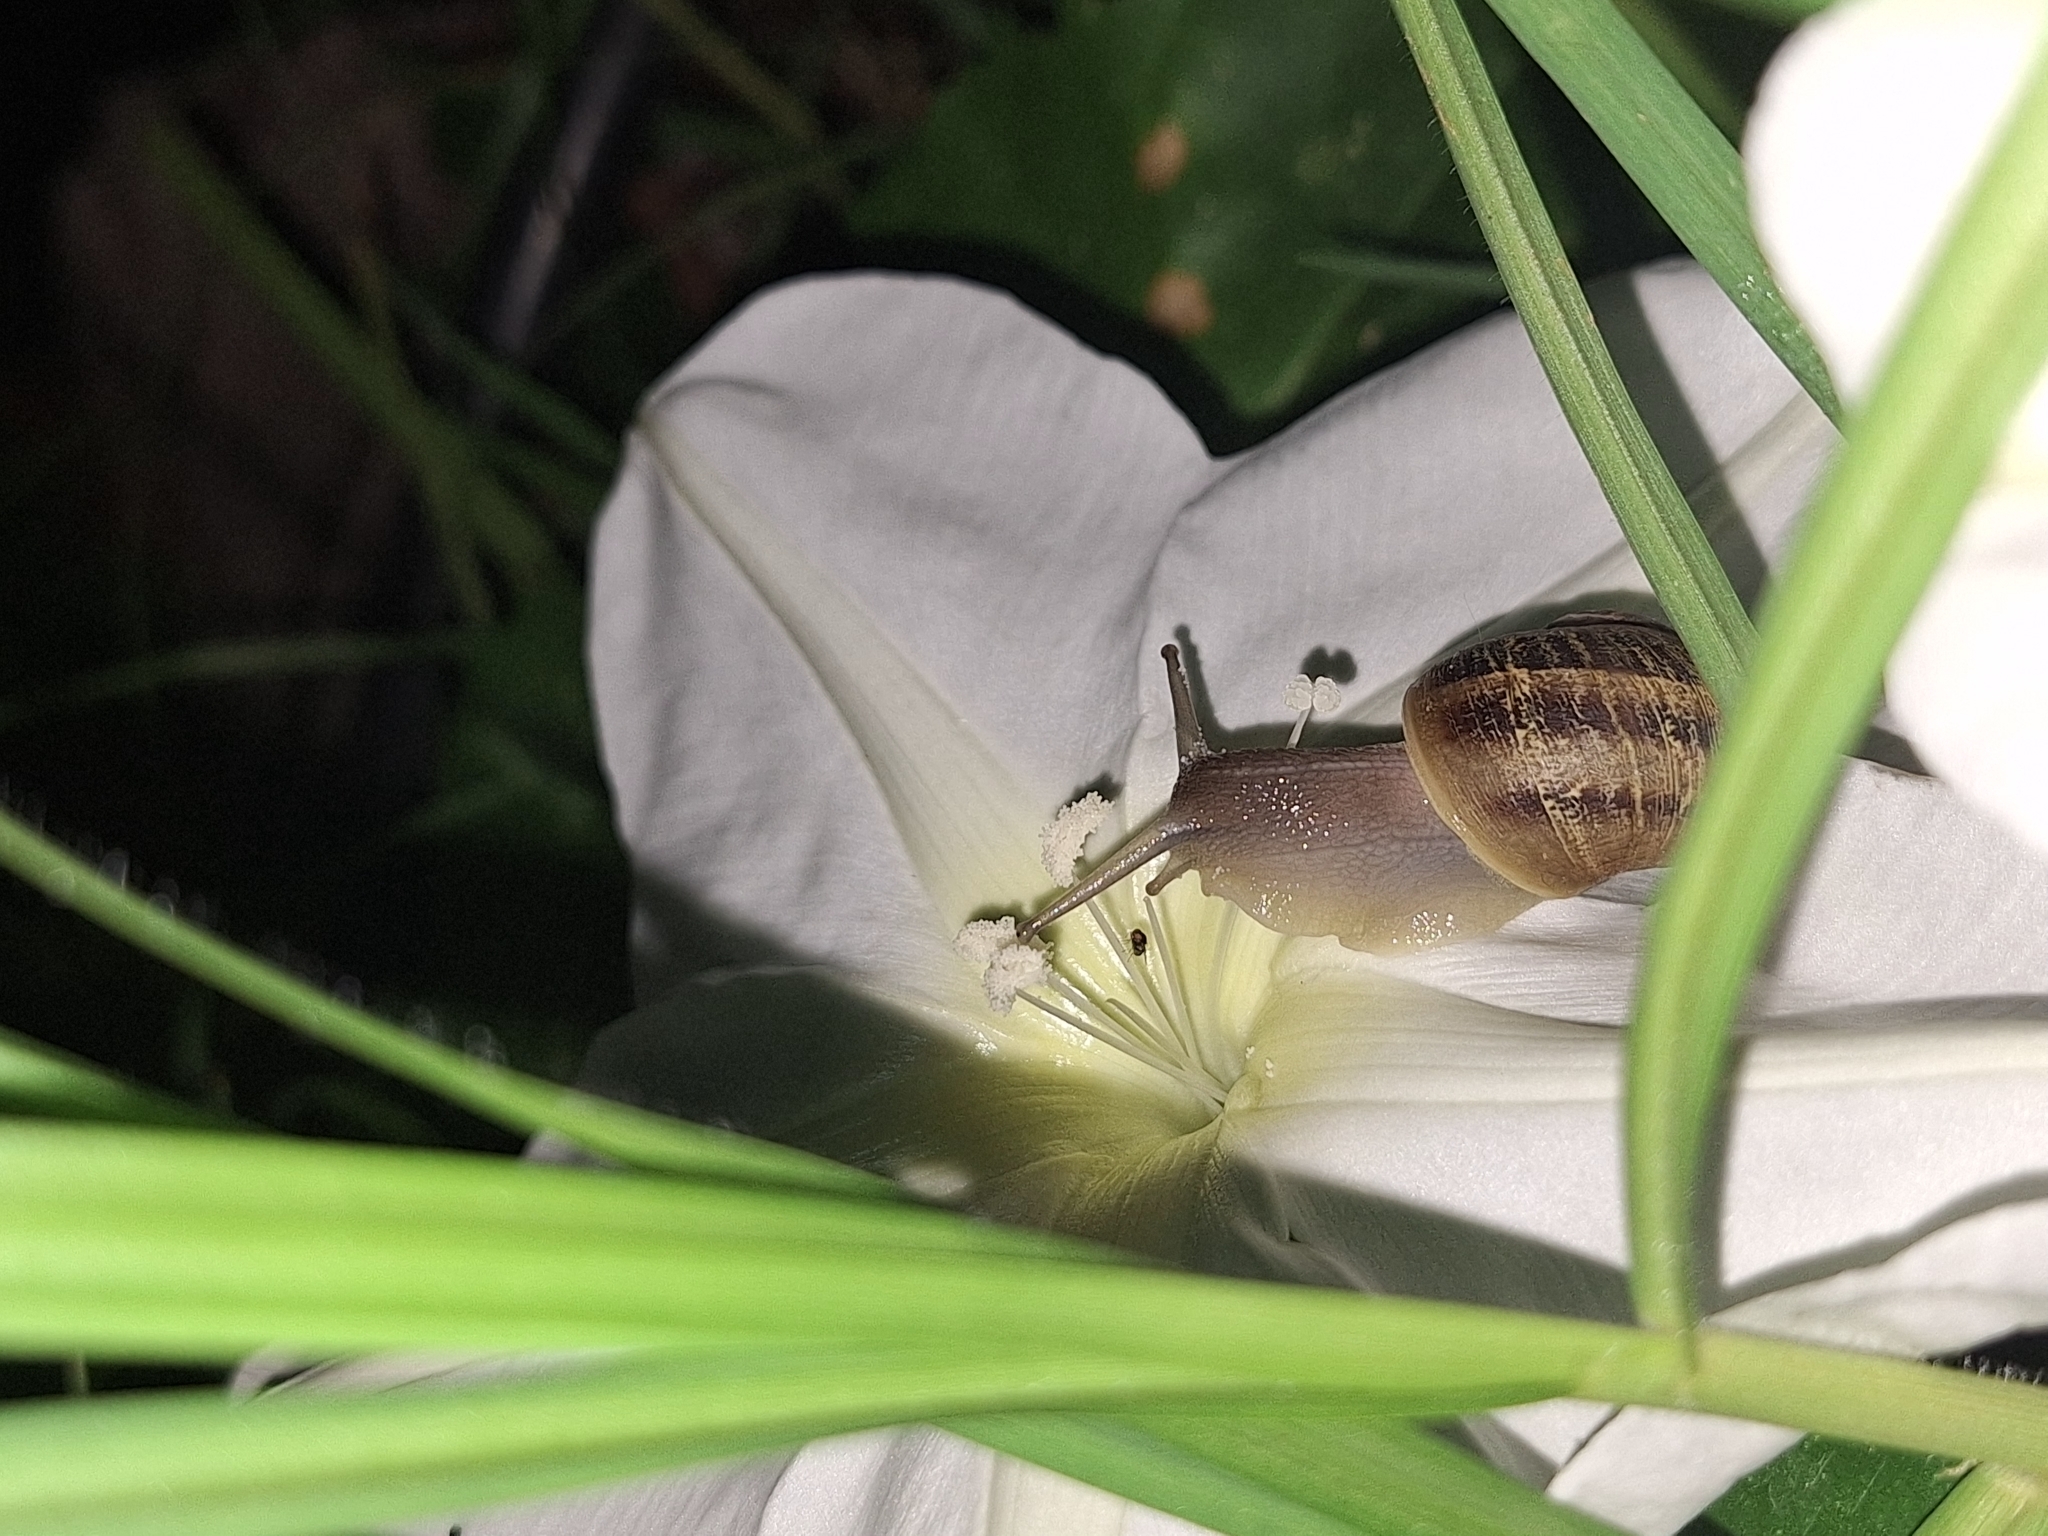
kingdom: Animalia
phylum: Mollusca
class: Gastropoda
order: Stylommatophora
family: Helicidae
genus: Cornu
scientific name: Cornu aspersum
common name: Brown garden snail
